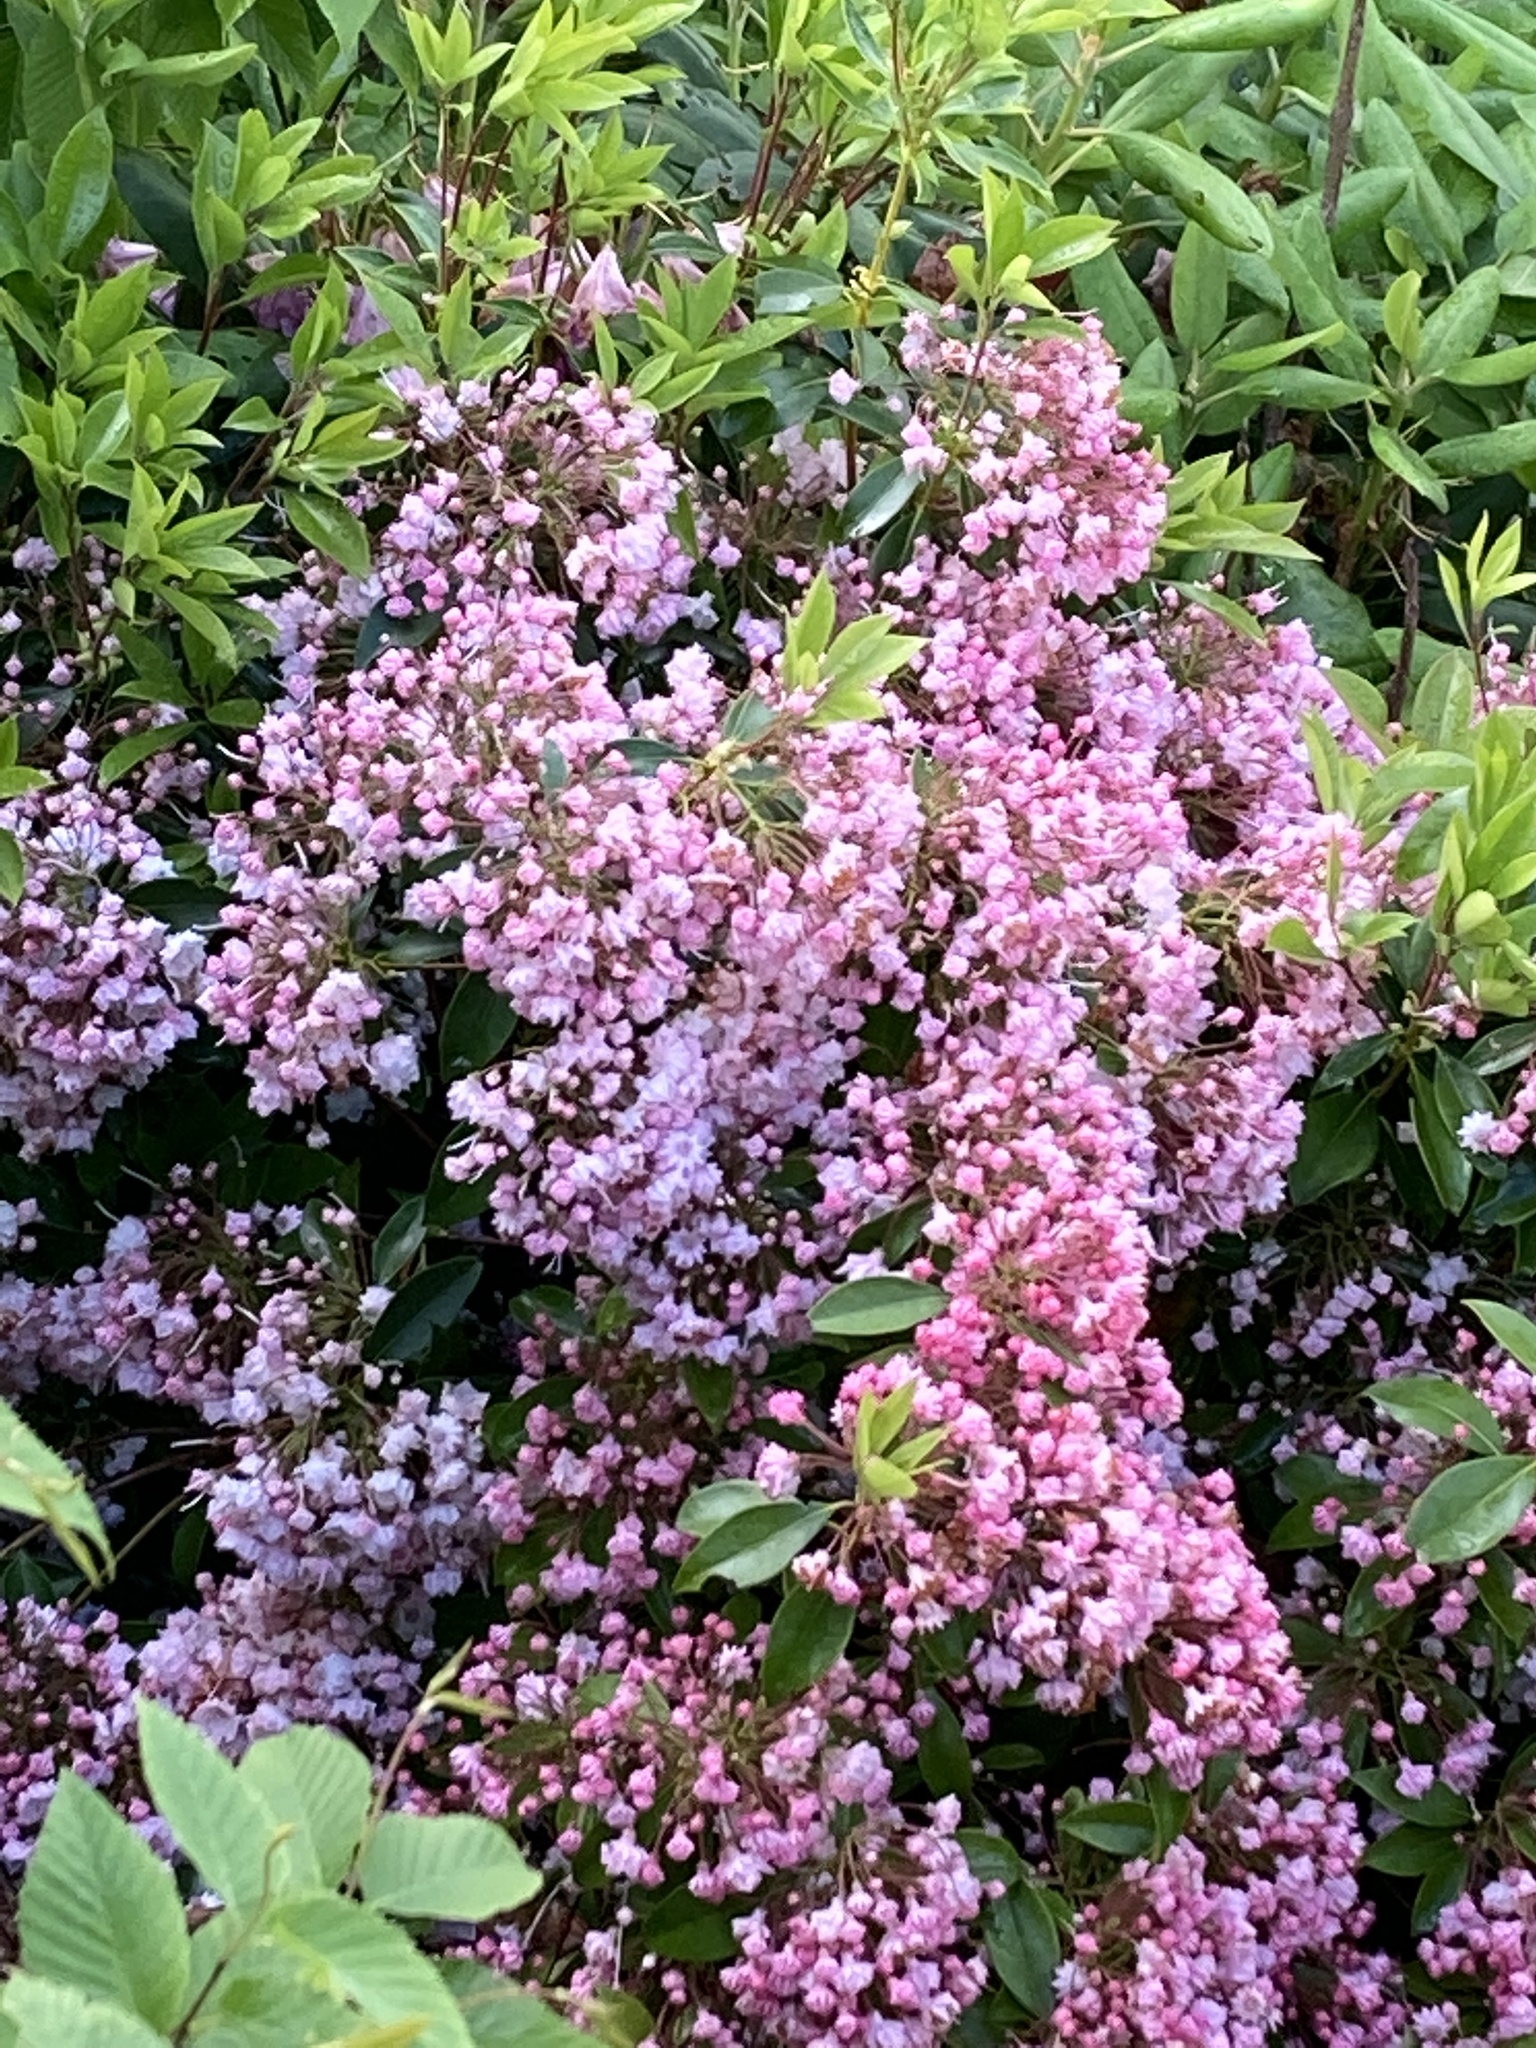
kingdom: Plantae
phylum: Tracheophyta
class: Magnoliopsida
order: Ericales
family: Ericaceae
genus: Kalmia
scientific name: Kalmia latifolia
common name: Mountain-laurel
